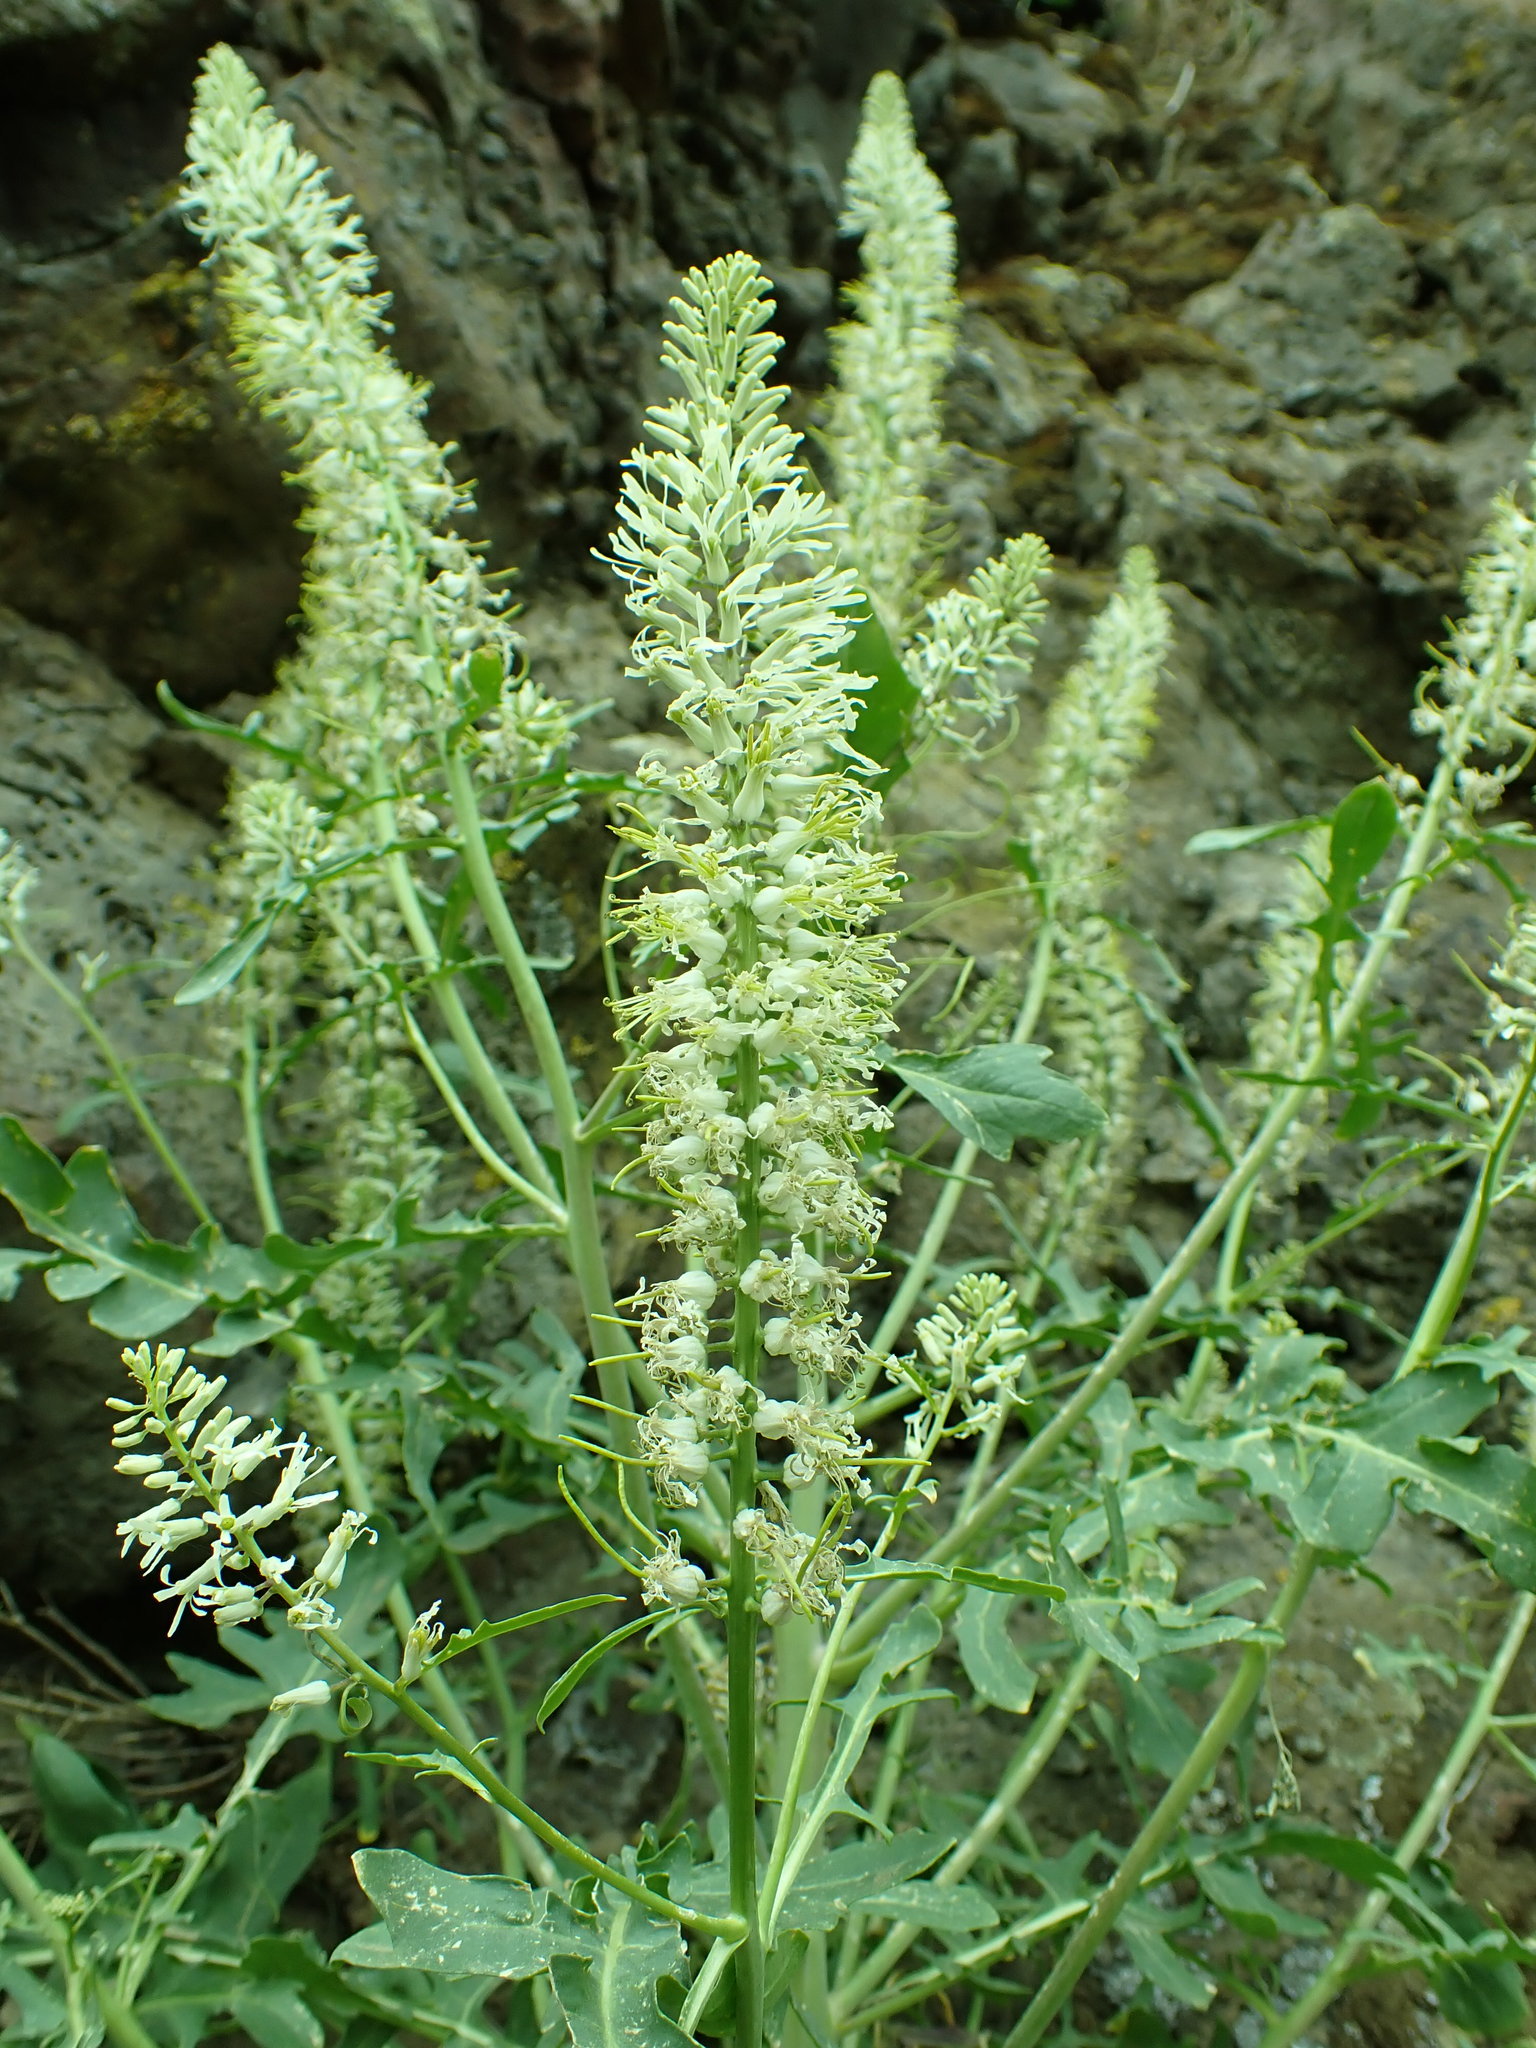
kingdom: Plantae
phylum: Tracheophyta
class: Magnoliopsida
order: Brassicales
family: Brassicaceae
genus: Thelypodium
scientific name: Thelypodium laciniatum
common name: Cut-leaved thelypody
